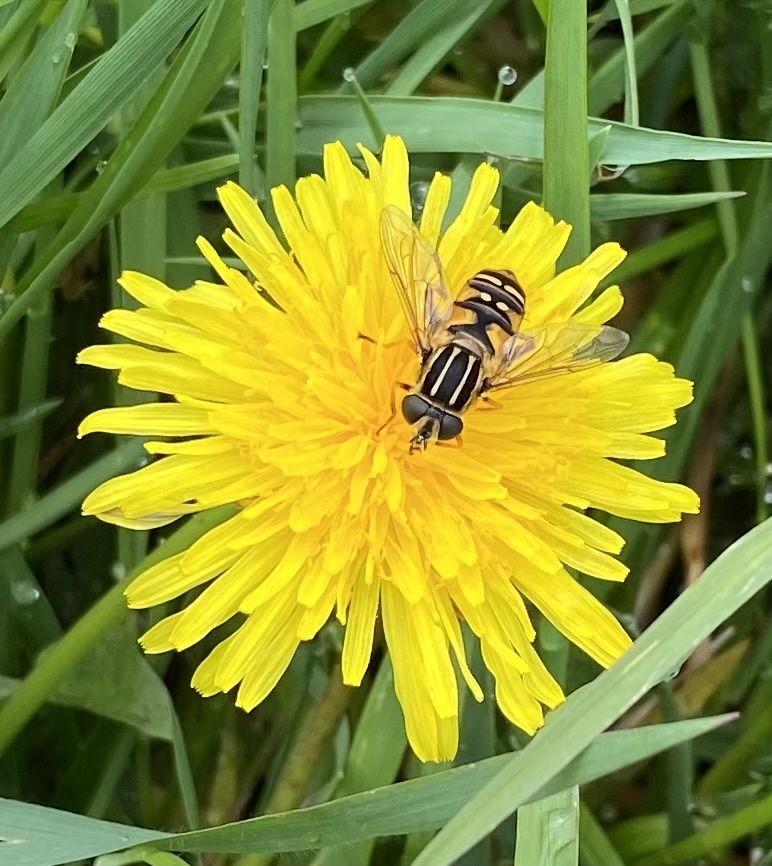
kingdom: Animalia
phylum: Arthropoda
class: Insecta
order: Diptera
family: Syrphidae
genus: Helophilus
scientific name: Helophilus pendulus
